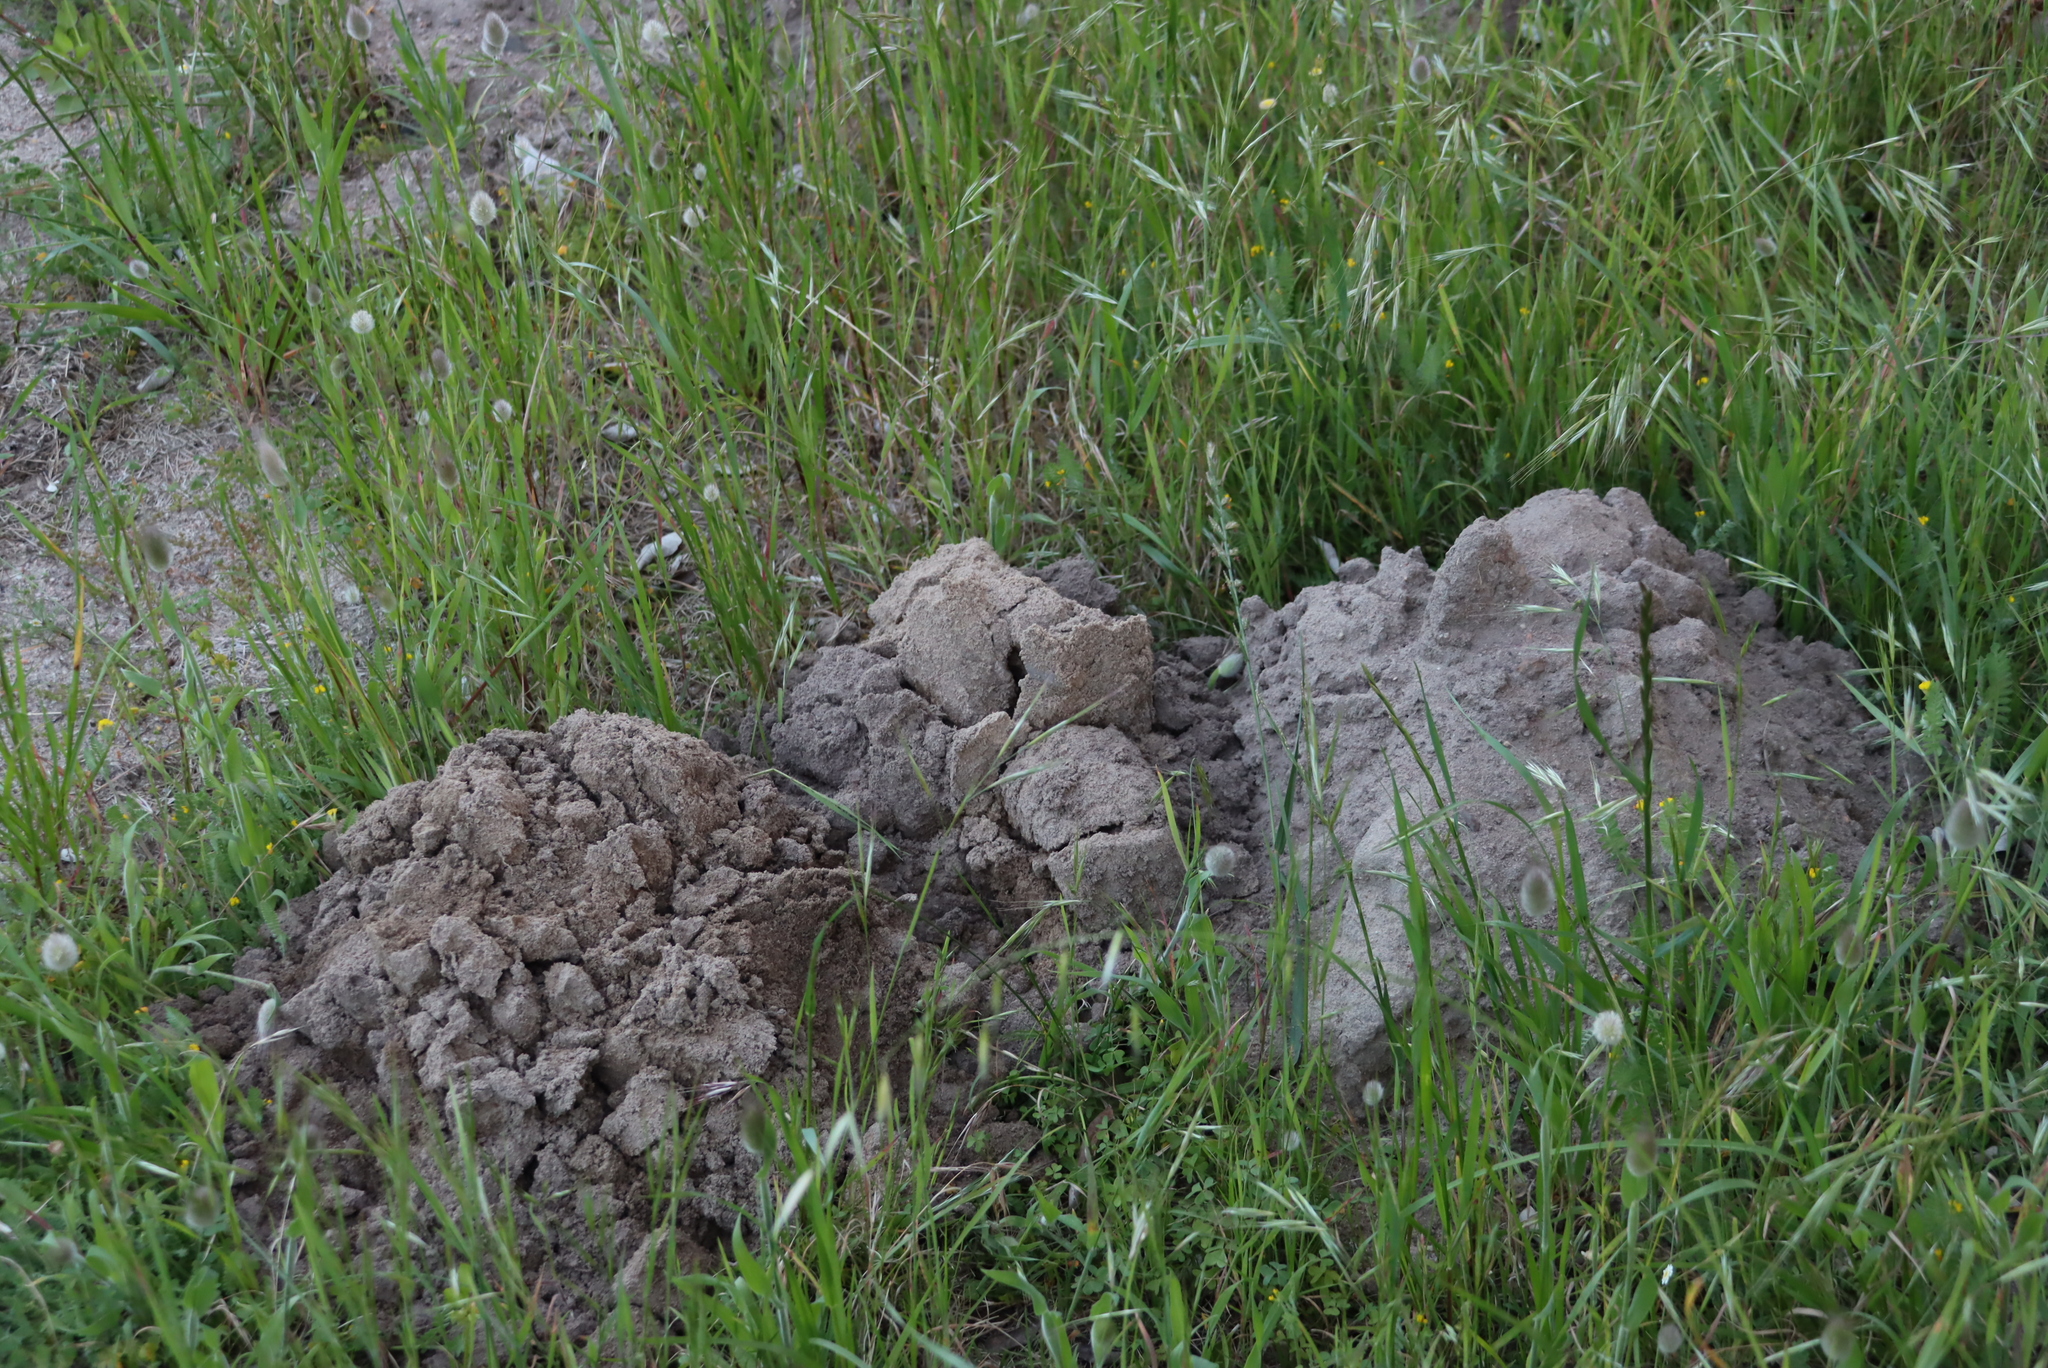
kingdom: Animalia
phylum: Chordata
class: Mammalia
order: Rodentia
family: Bathyergidae
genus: Bathyergus
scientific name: Bathyergus suillus
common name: Cape dune mole rat
